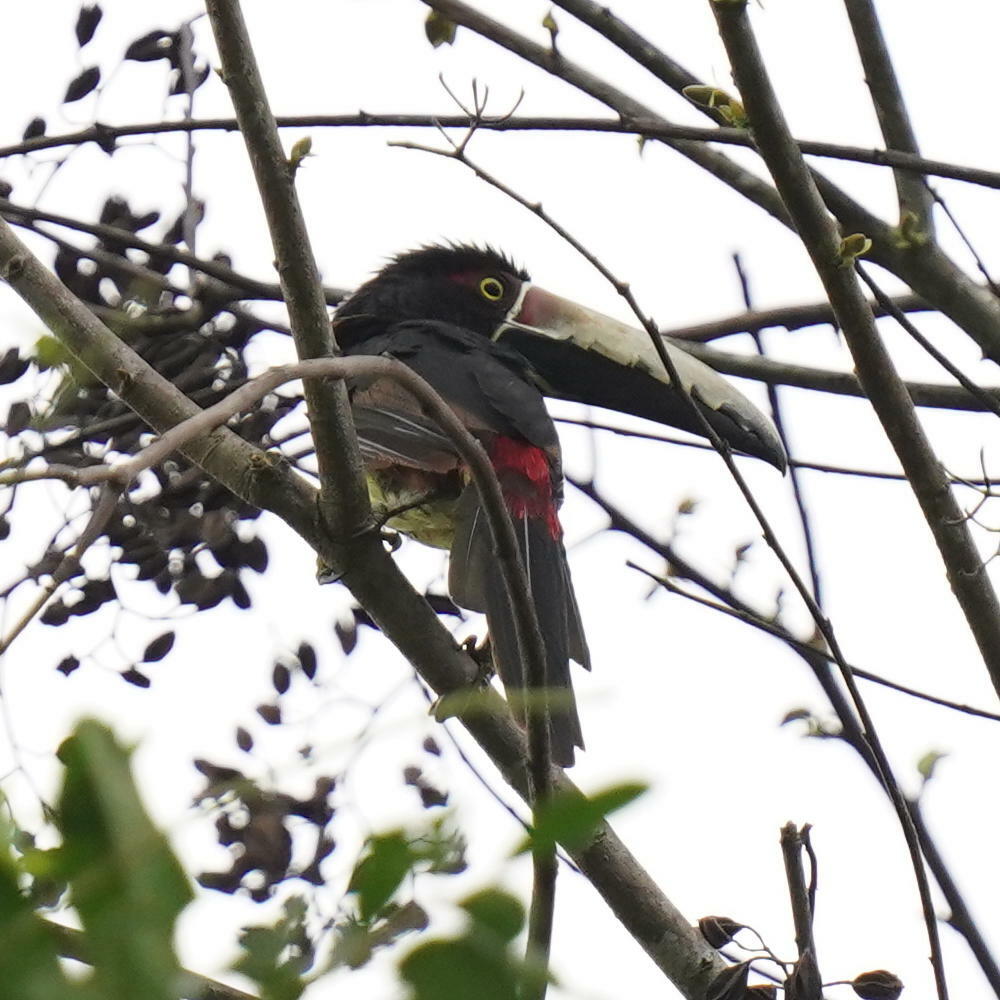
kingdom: Animalia
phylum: Chordata
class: Aves
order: Piciformes
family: Ramphastidae
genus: Pteroglossus
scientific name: Pteroglossus torquatus
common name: Collared aracari
